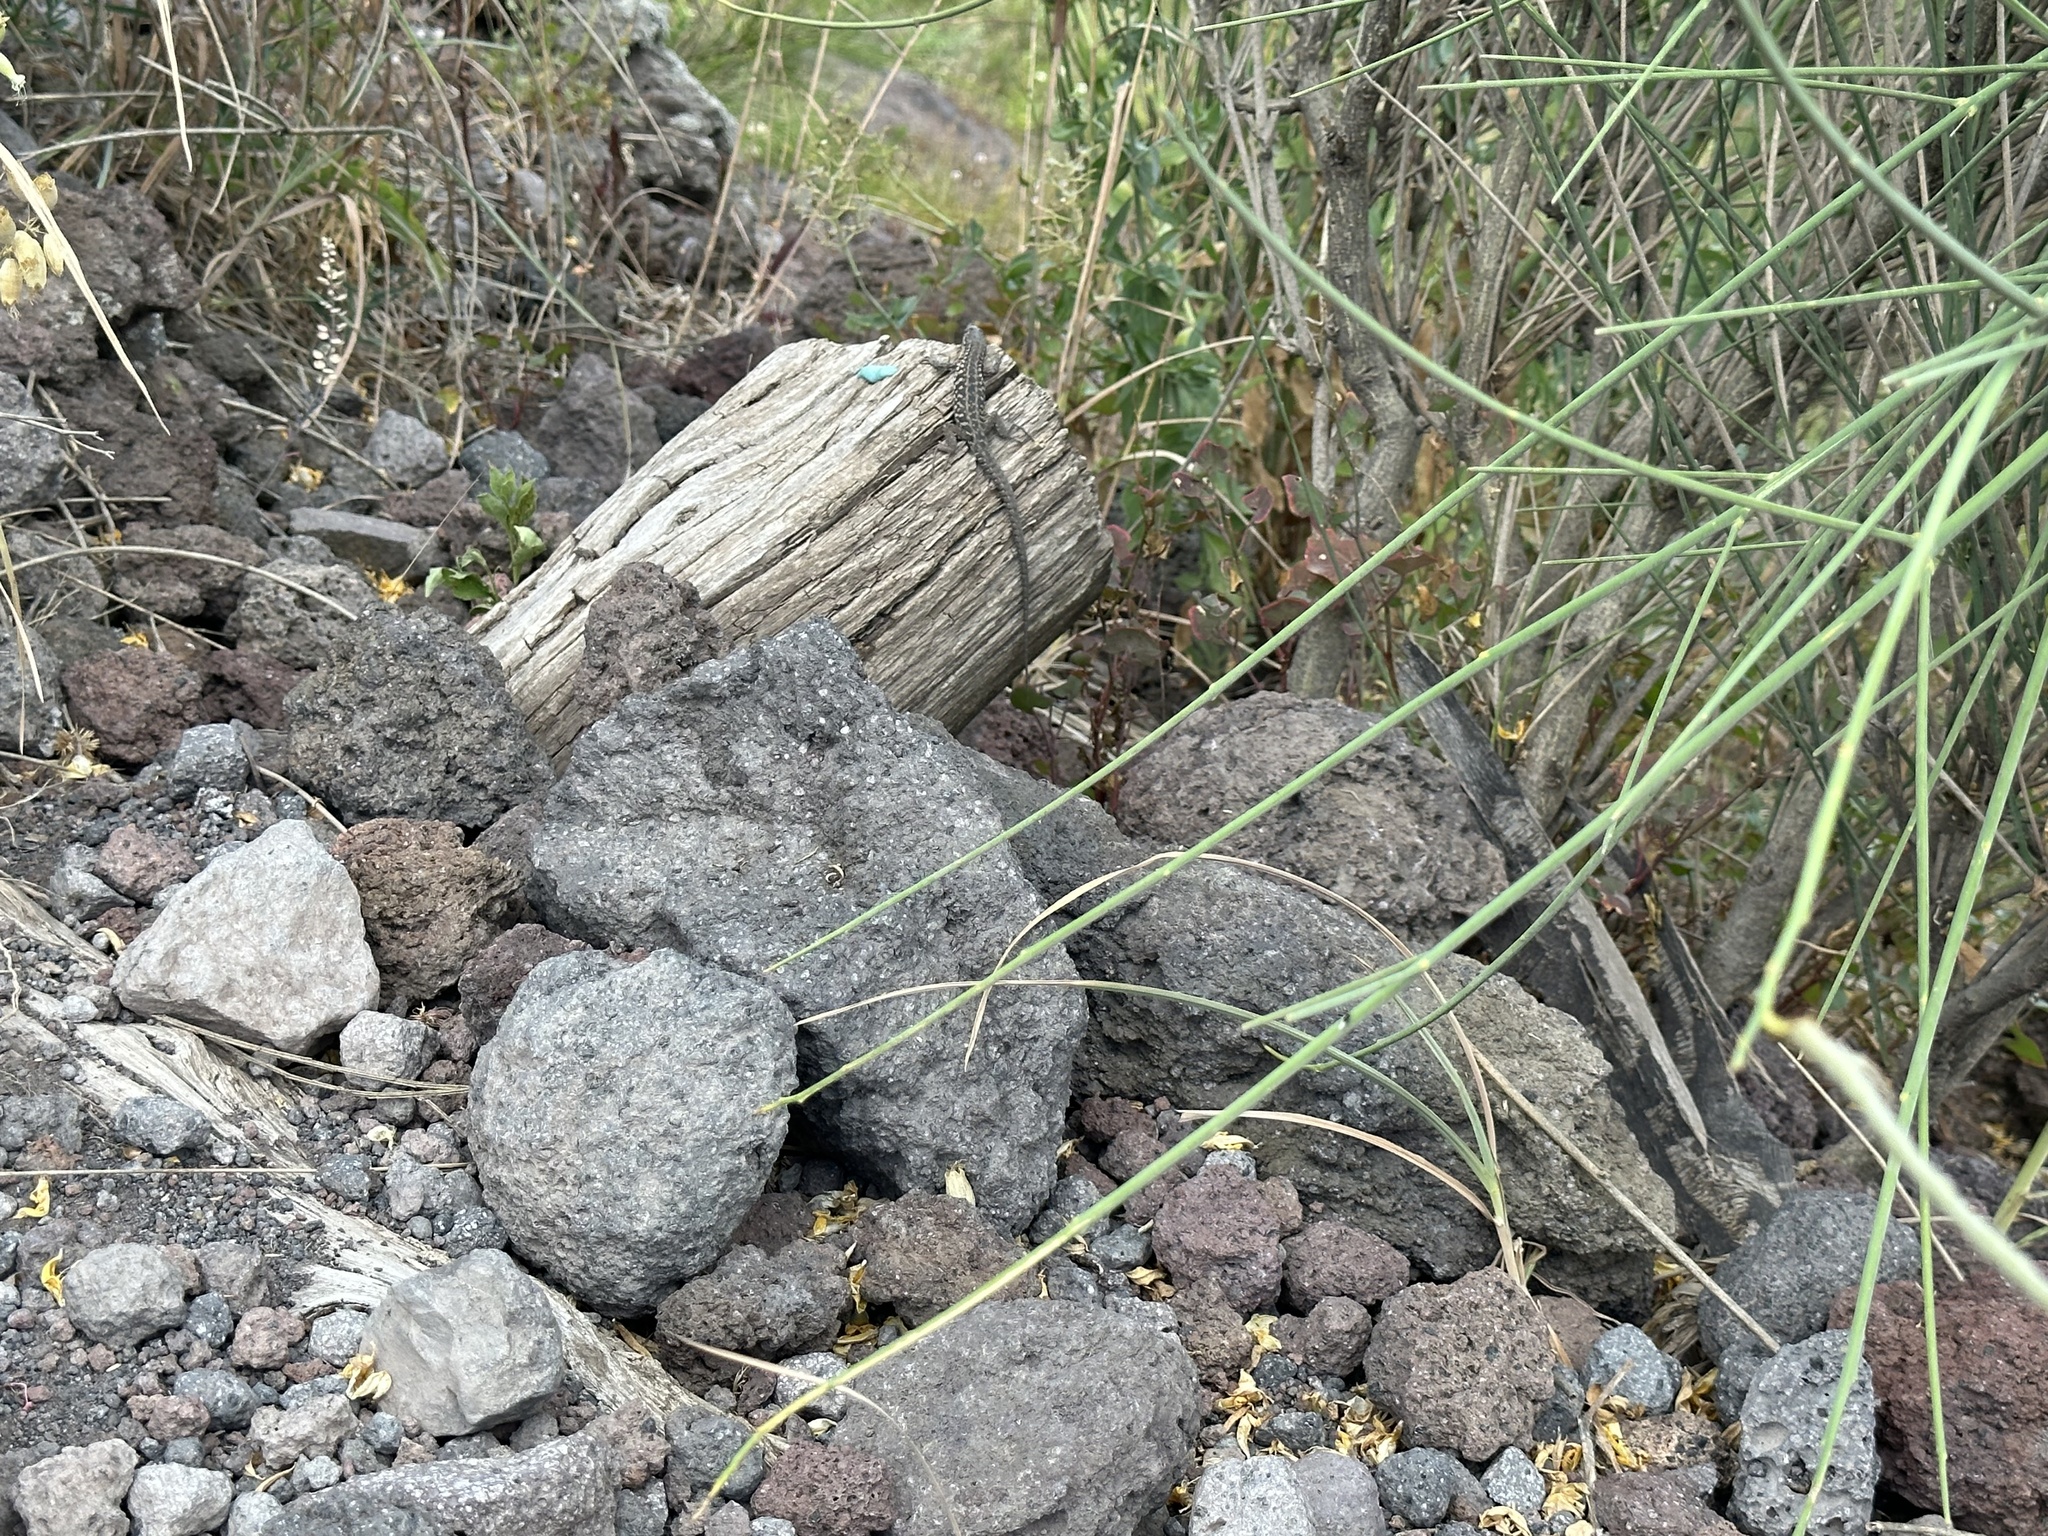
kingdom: Animalia
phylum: Chordata
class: Squamata
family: Lacertidae
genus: Podarcis
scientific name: Podarcis siculus
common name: Italian wall lizard
